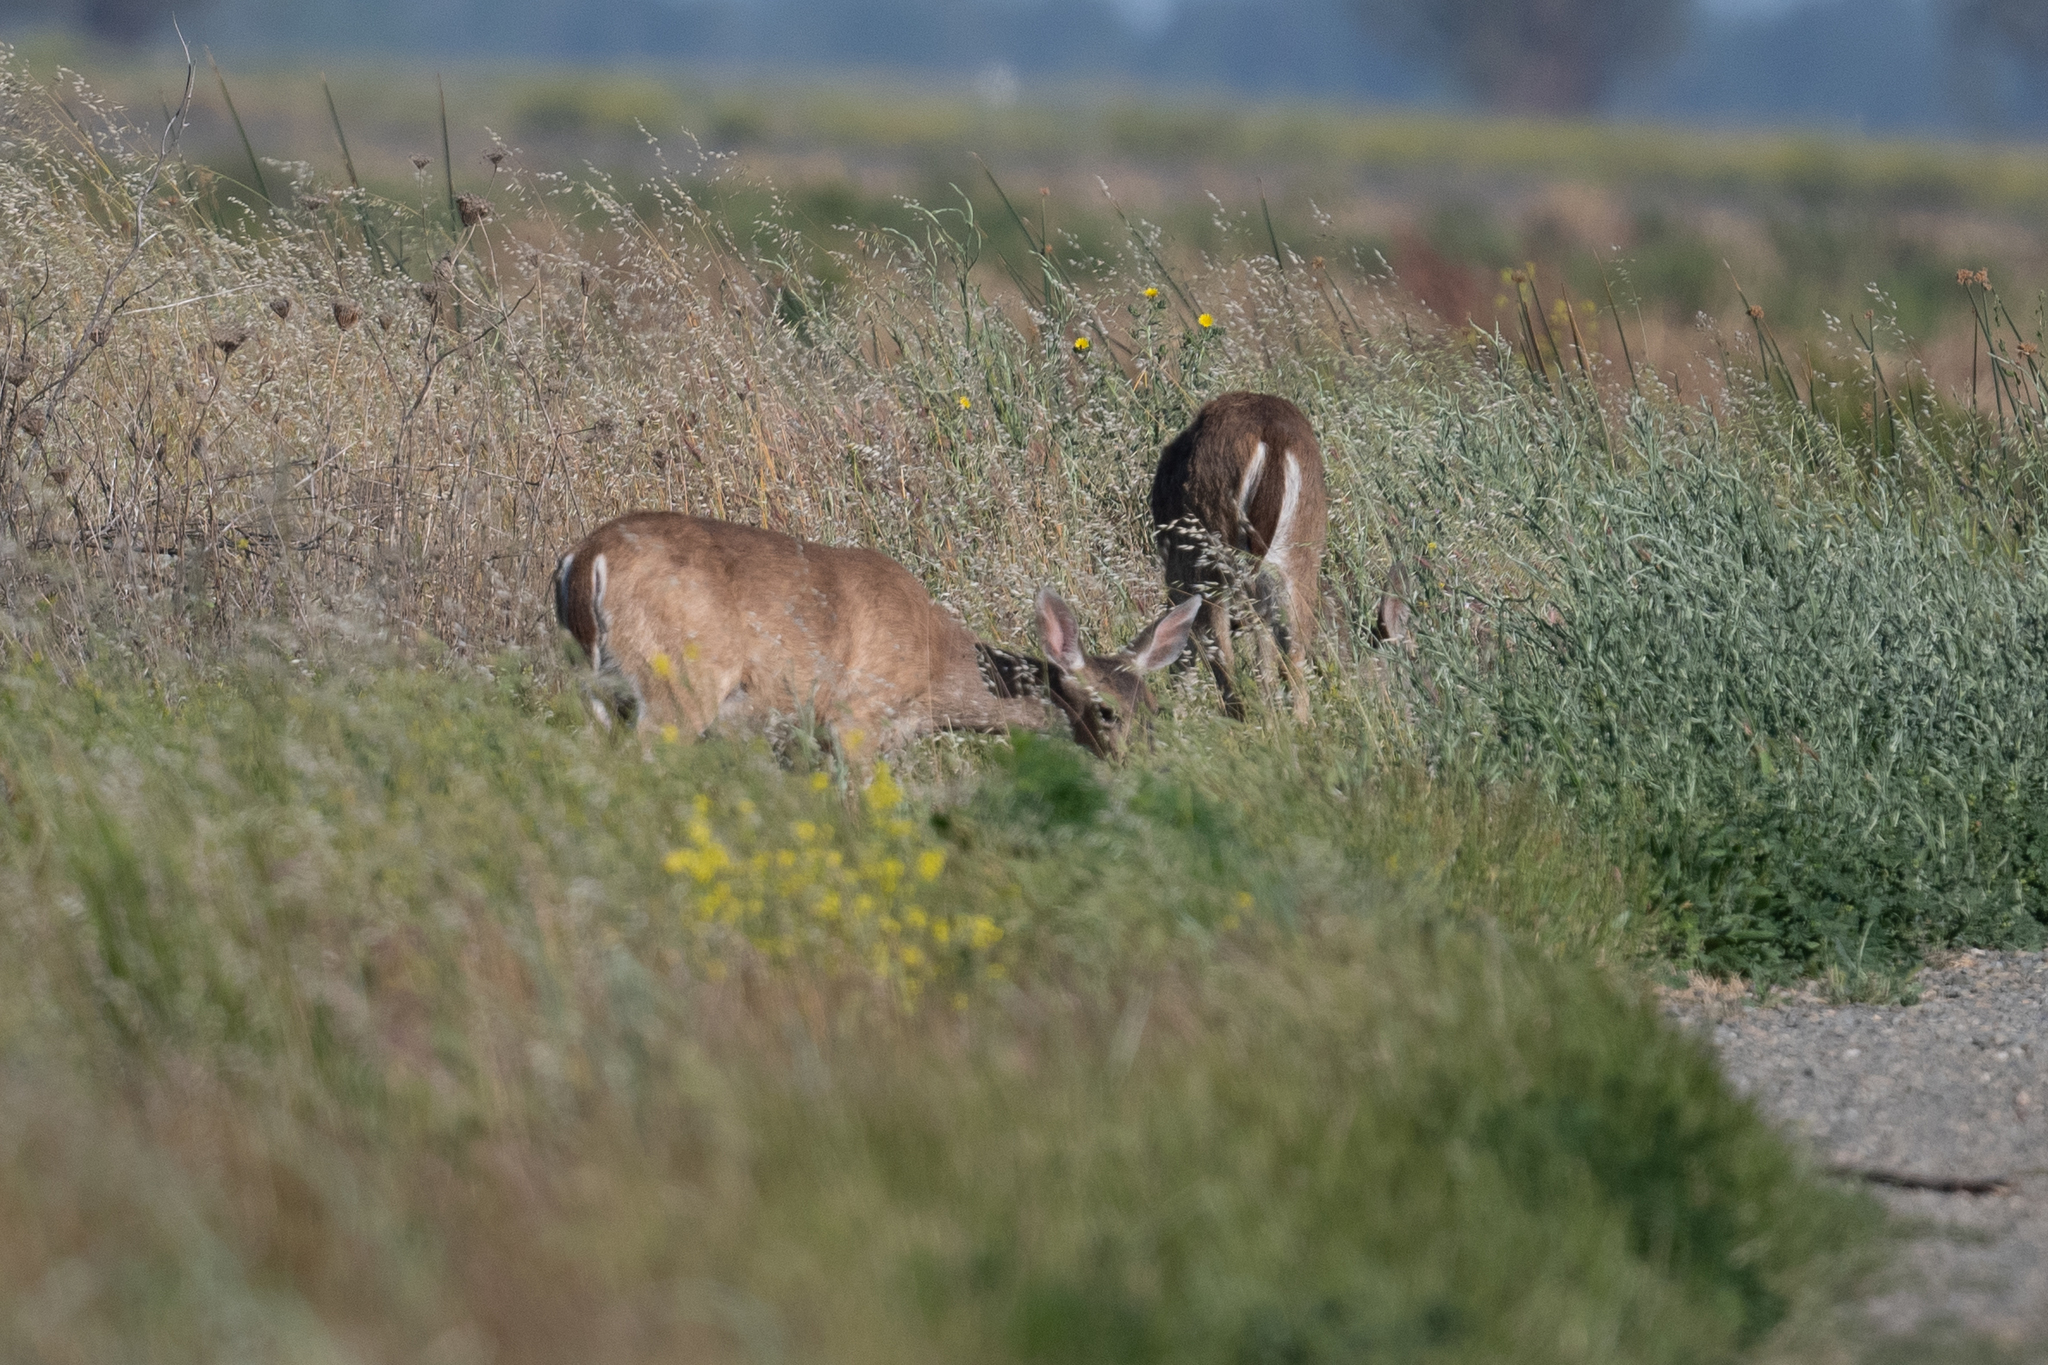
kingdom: Animalia
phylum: Chordata
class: Mammalia
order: Artiodactyla
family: Cervidae
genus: Odocoileus
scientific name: Odocoileus hemionus
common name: Mule deer
